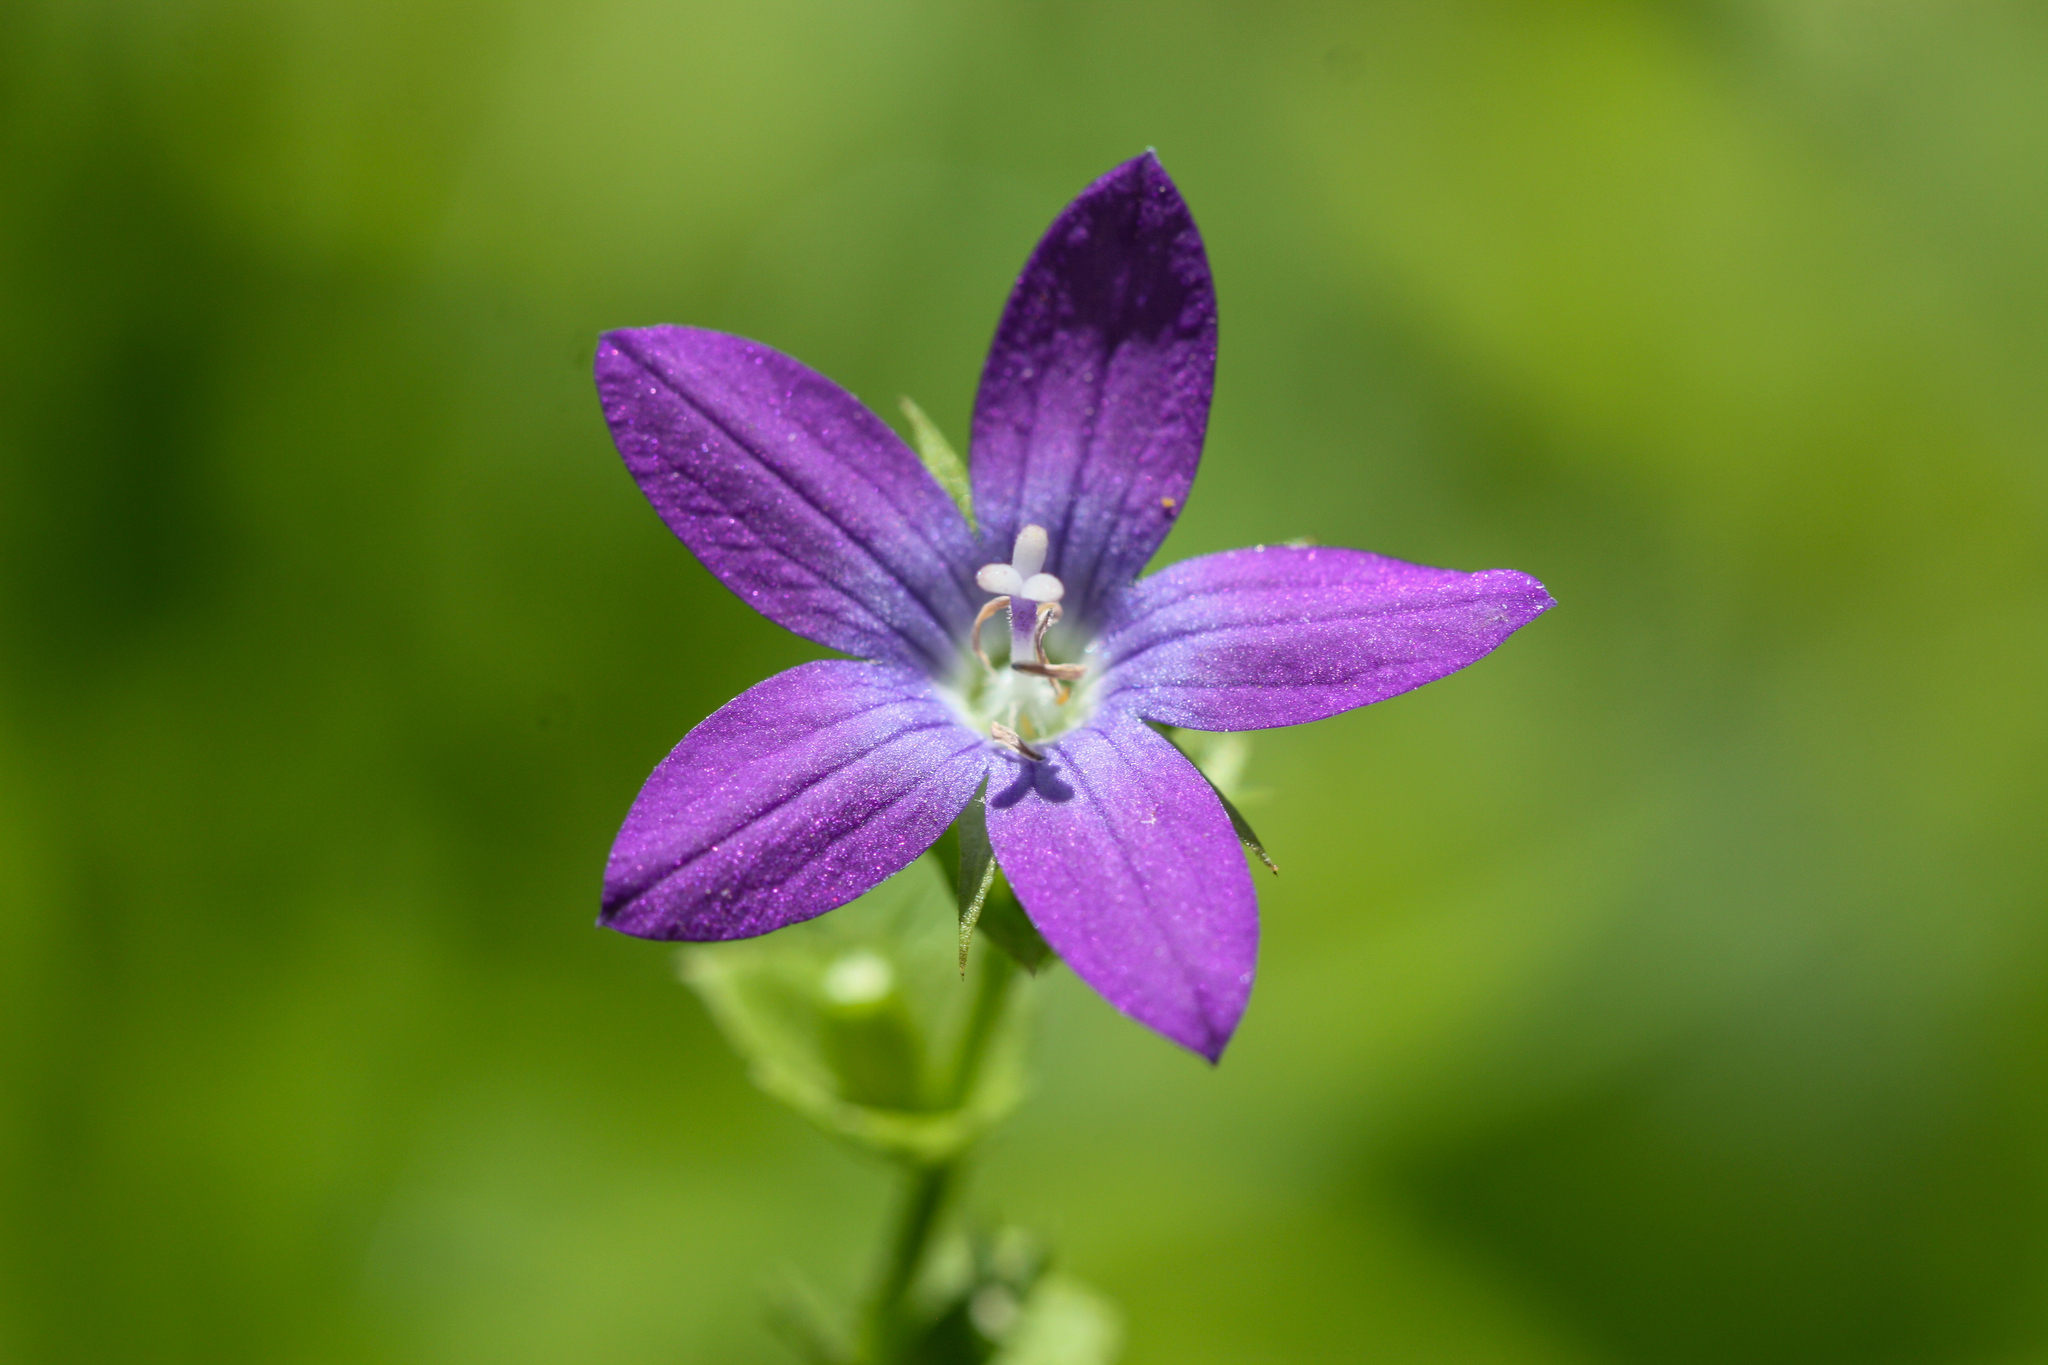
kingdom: Plantae
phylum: Tracheophyta
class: Magnoliopsida
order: Asterales
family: Campanulaceae
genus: Triodanis
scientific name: Triodanis perfoliata
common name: Clasping venus' looking-glass
